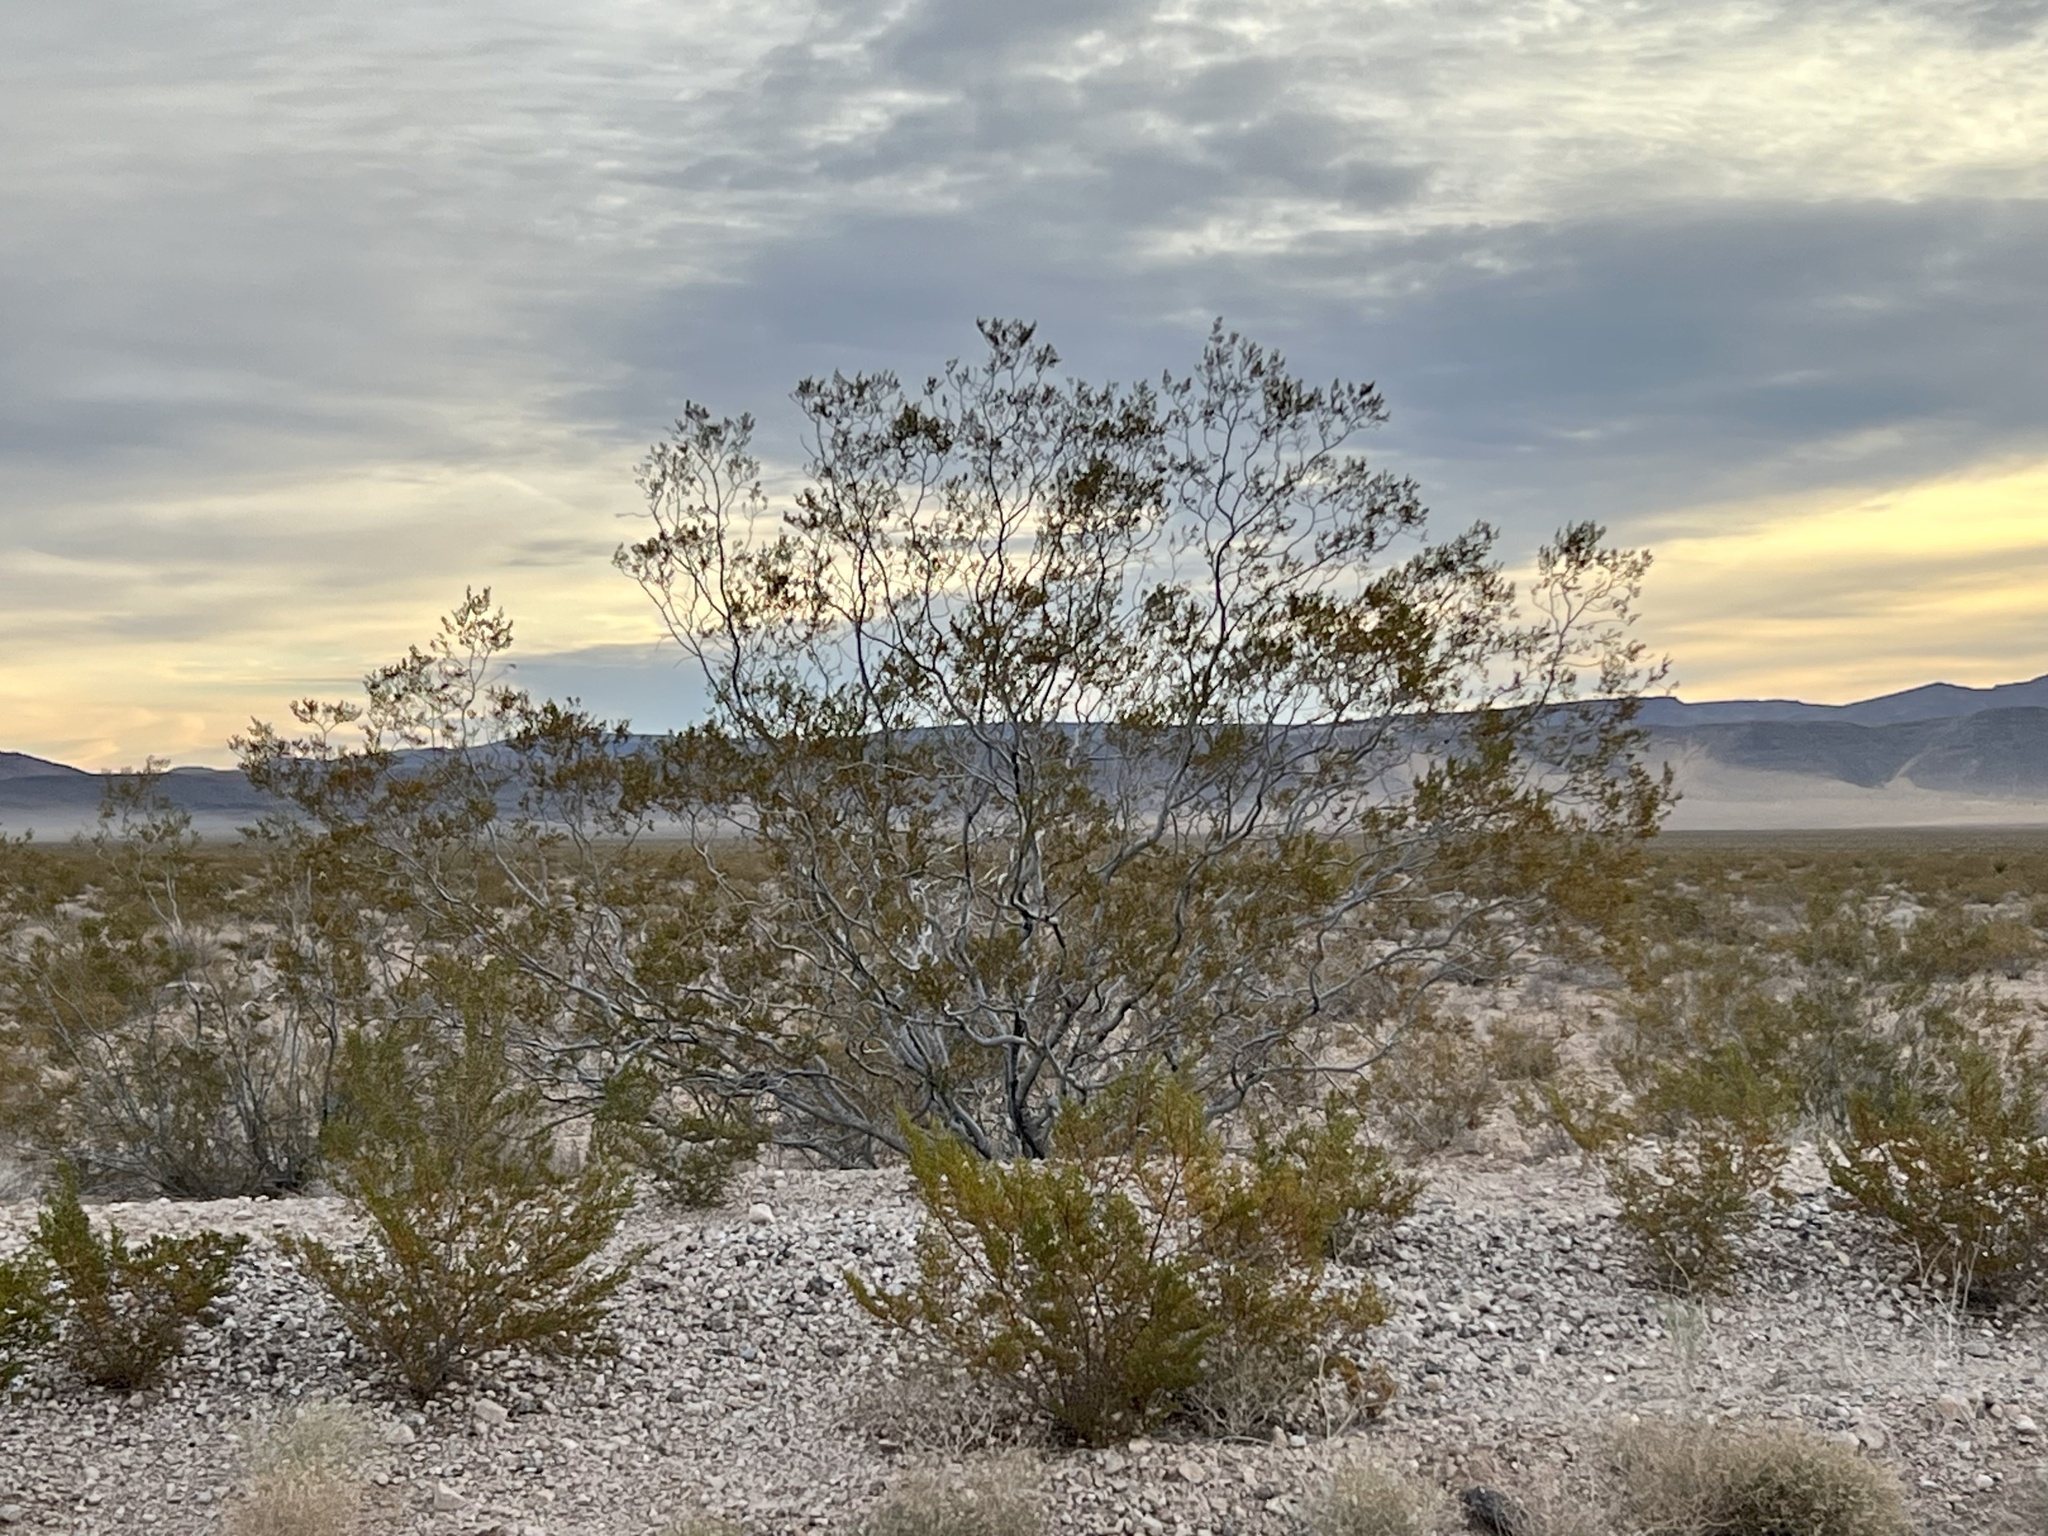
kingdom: Plantae
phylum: Tracheophyta
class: Magnoliopsida
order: Zygophyllales
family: Zygophyllaceae
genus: Larrea
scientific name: Larrea tridentata
